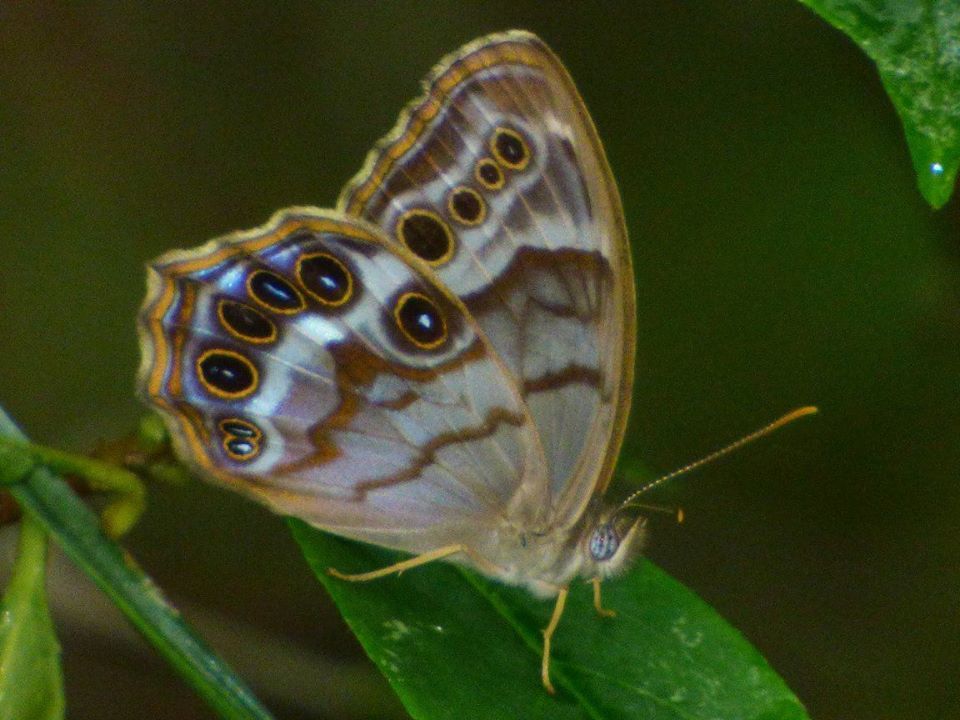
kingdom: Animalia
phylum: Arthropoda
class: Insecta
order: Lepidoptera
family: Nymphalidae
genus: Enodia
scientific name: Enodia portlandia
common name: Southern pearly-eye
